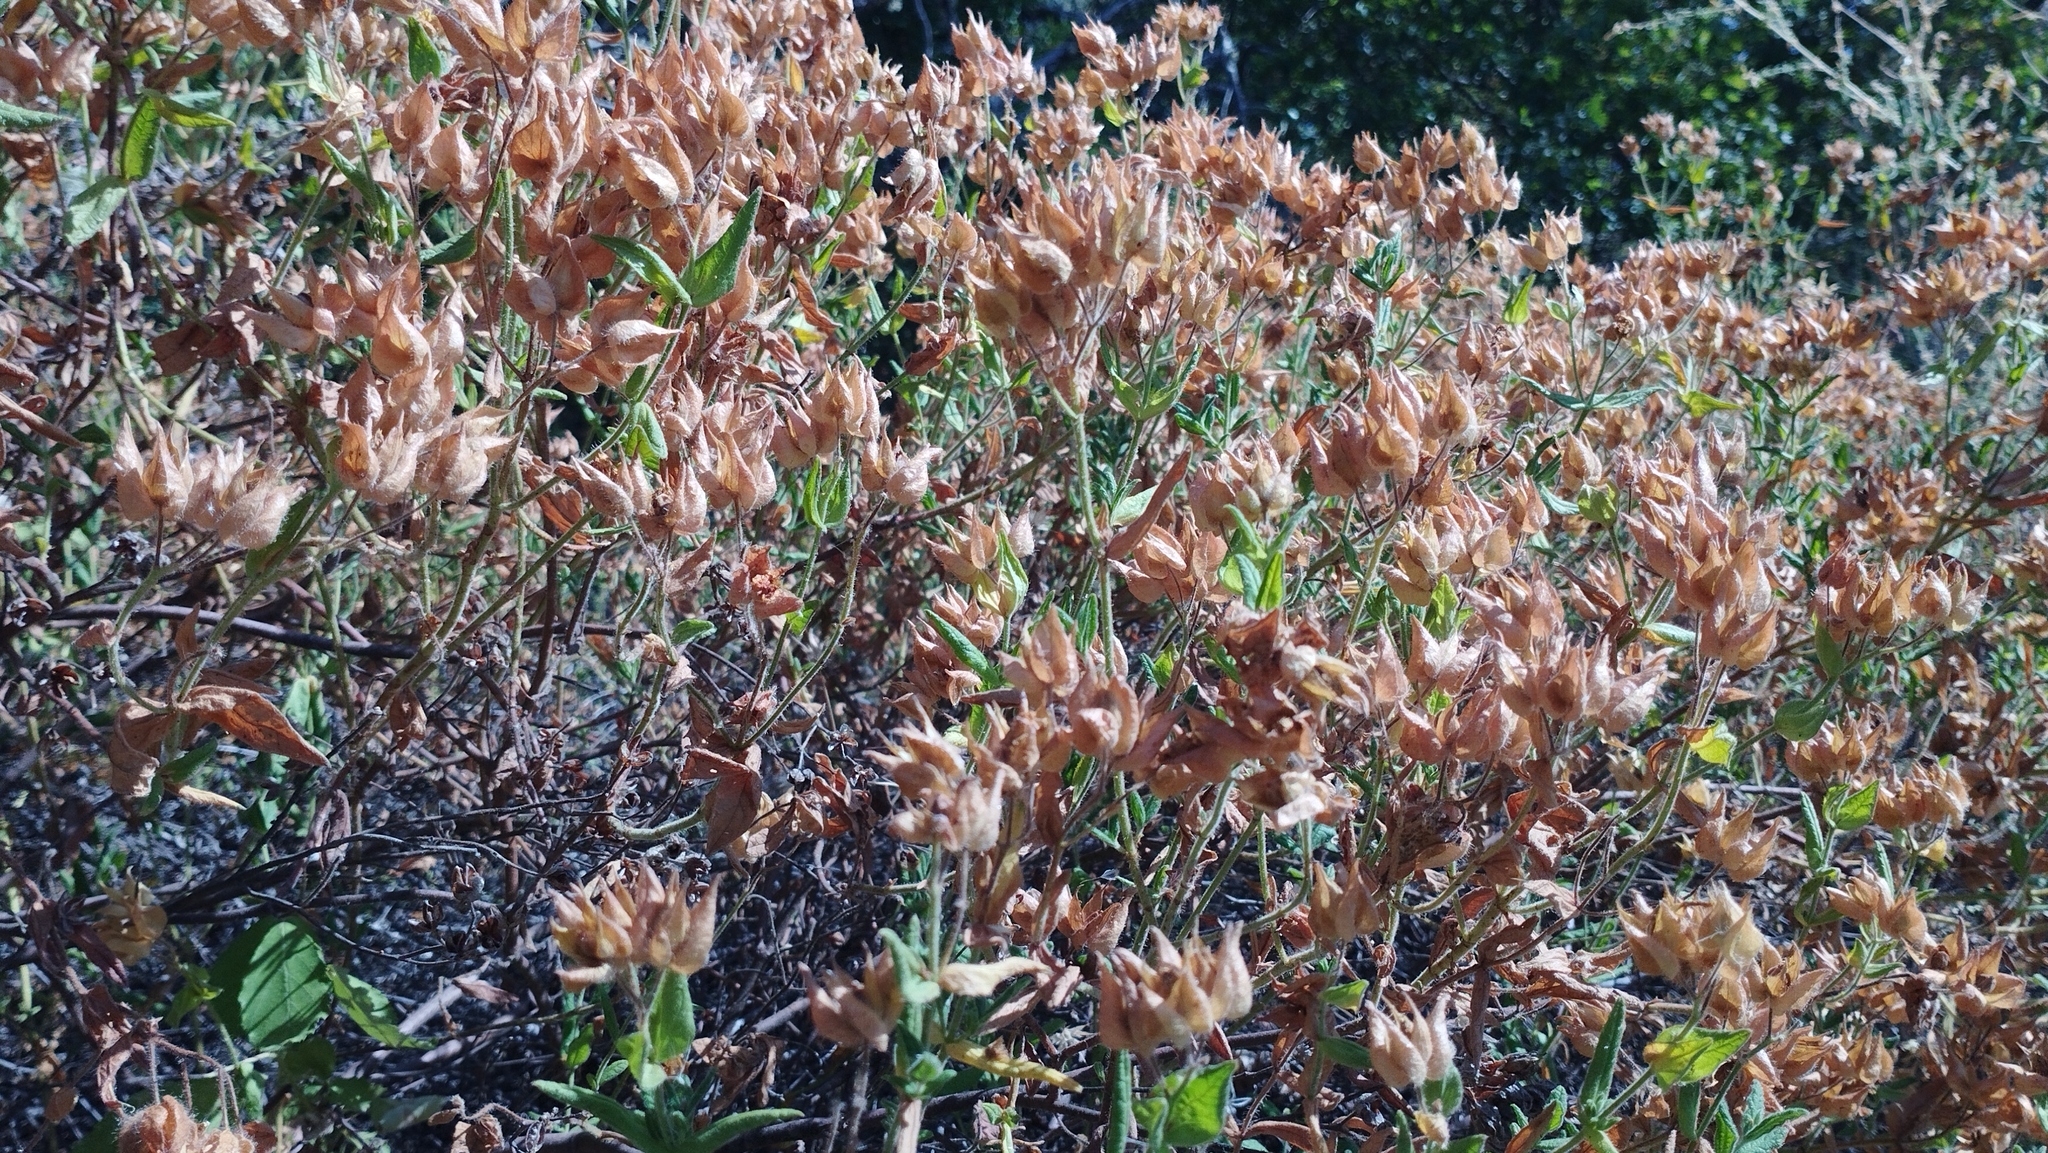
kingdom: Plantae
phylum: Tracheophyta
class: Magnoliopsida
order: Malvales
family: Cistaceae
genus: Cistus
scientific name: Cistus inflatus
